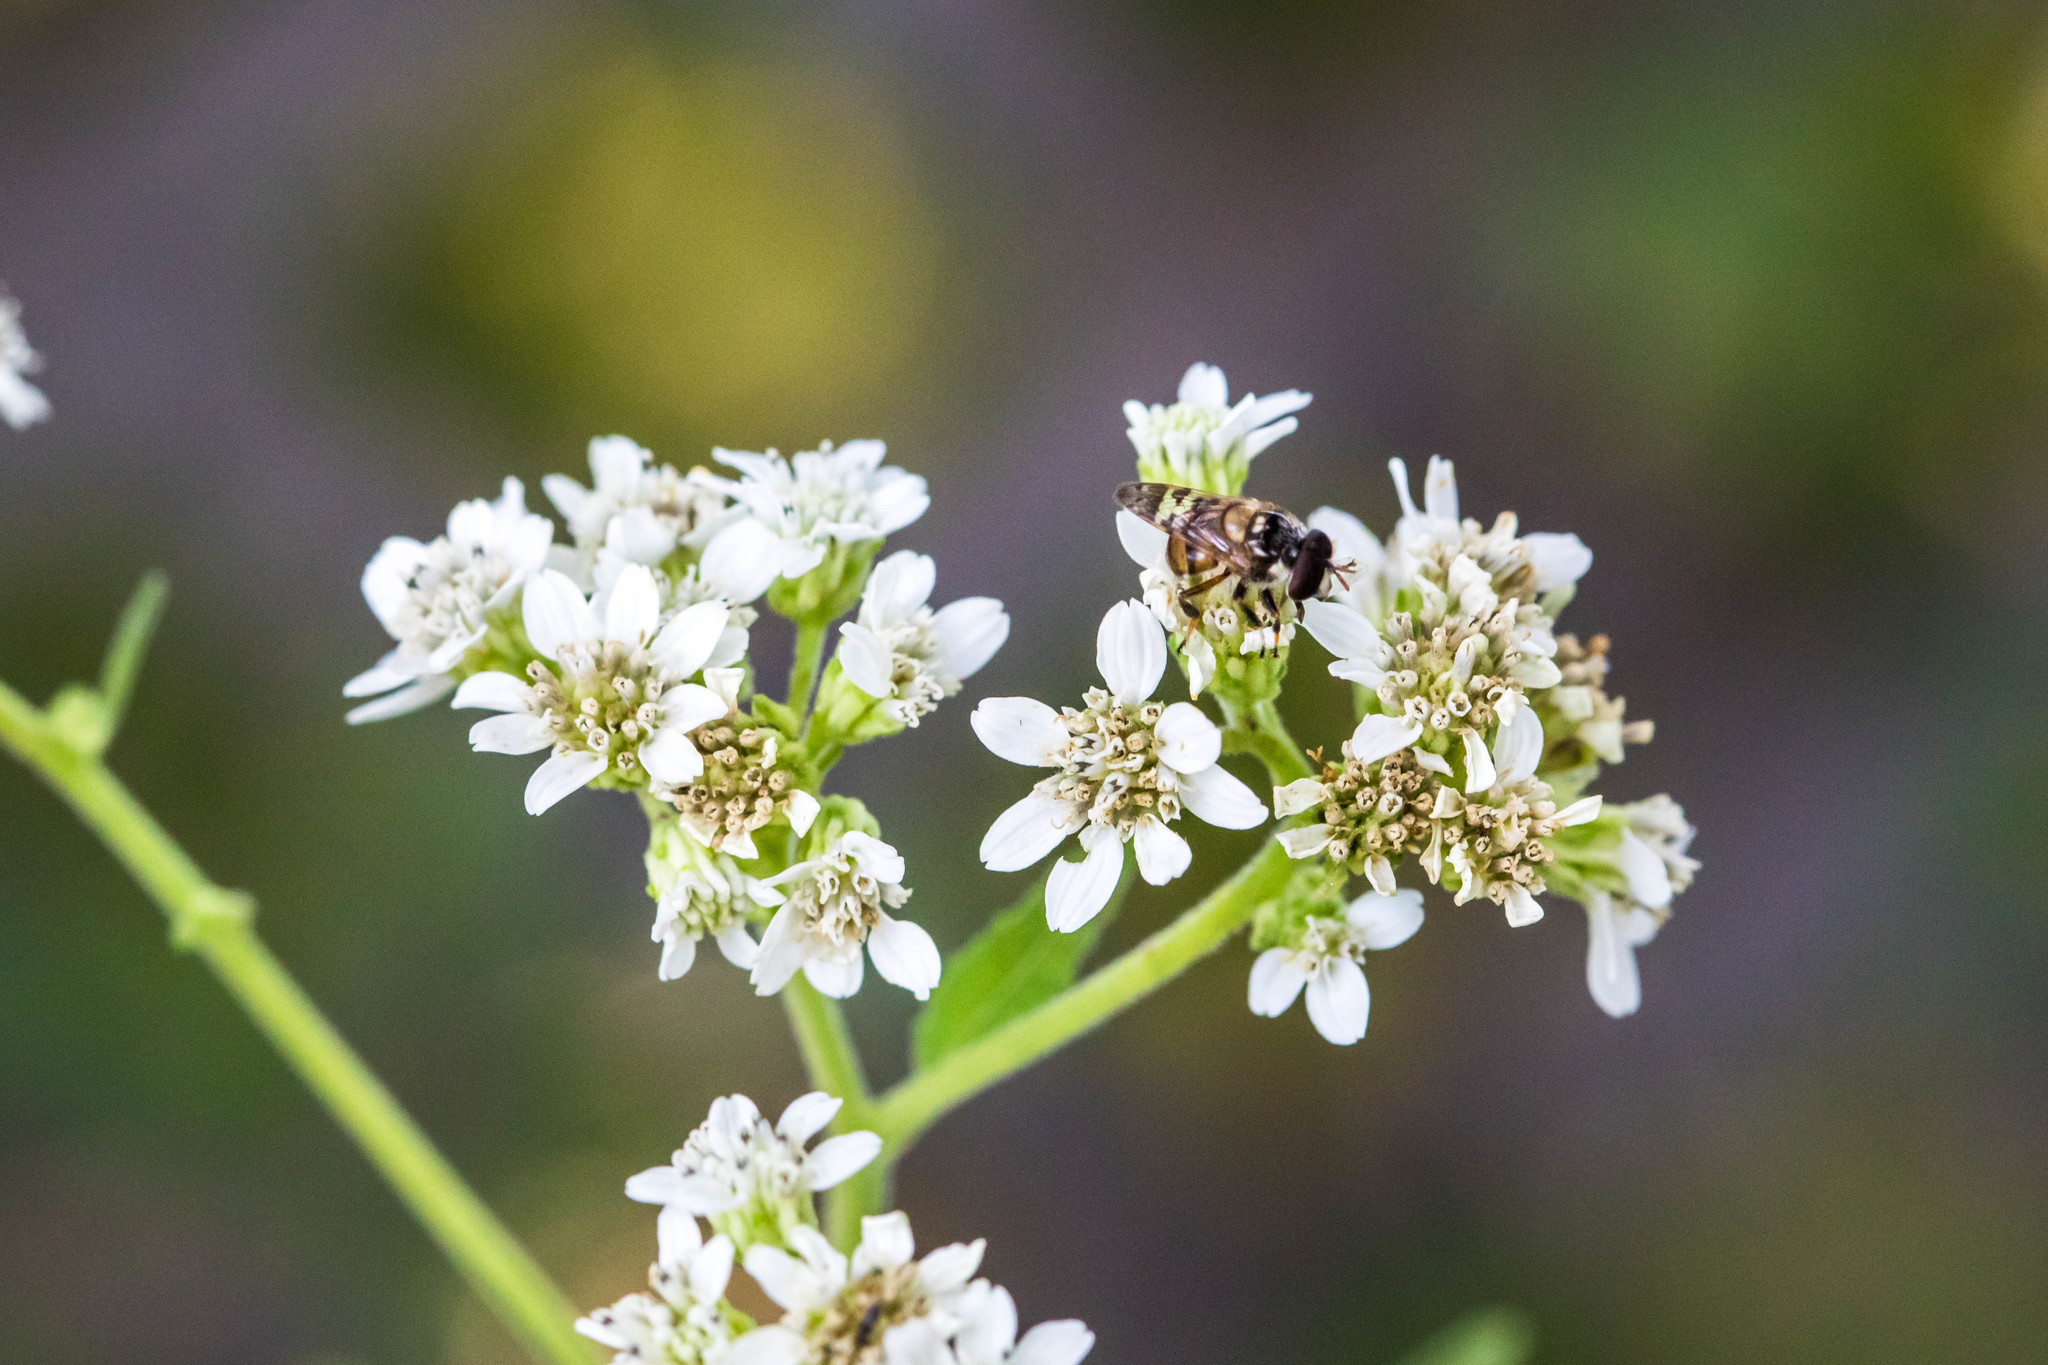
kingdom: Animalia
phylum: Arthropoda
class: Insecta
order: Diptera
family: Syrphidae
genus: Copestylum
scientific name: Copestylum tamaulipanum
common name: Syrphid fly
